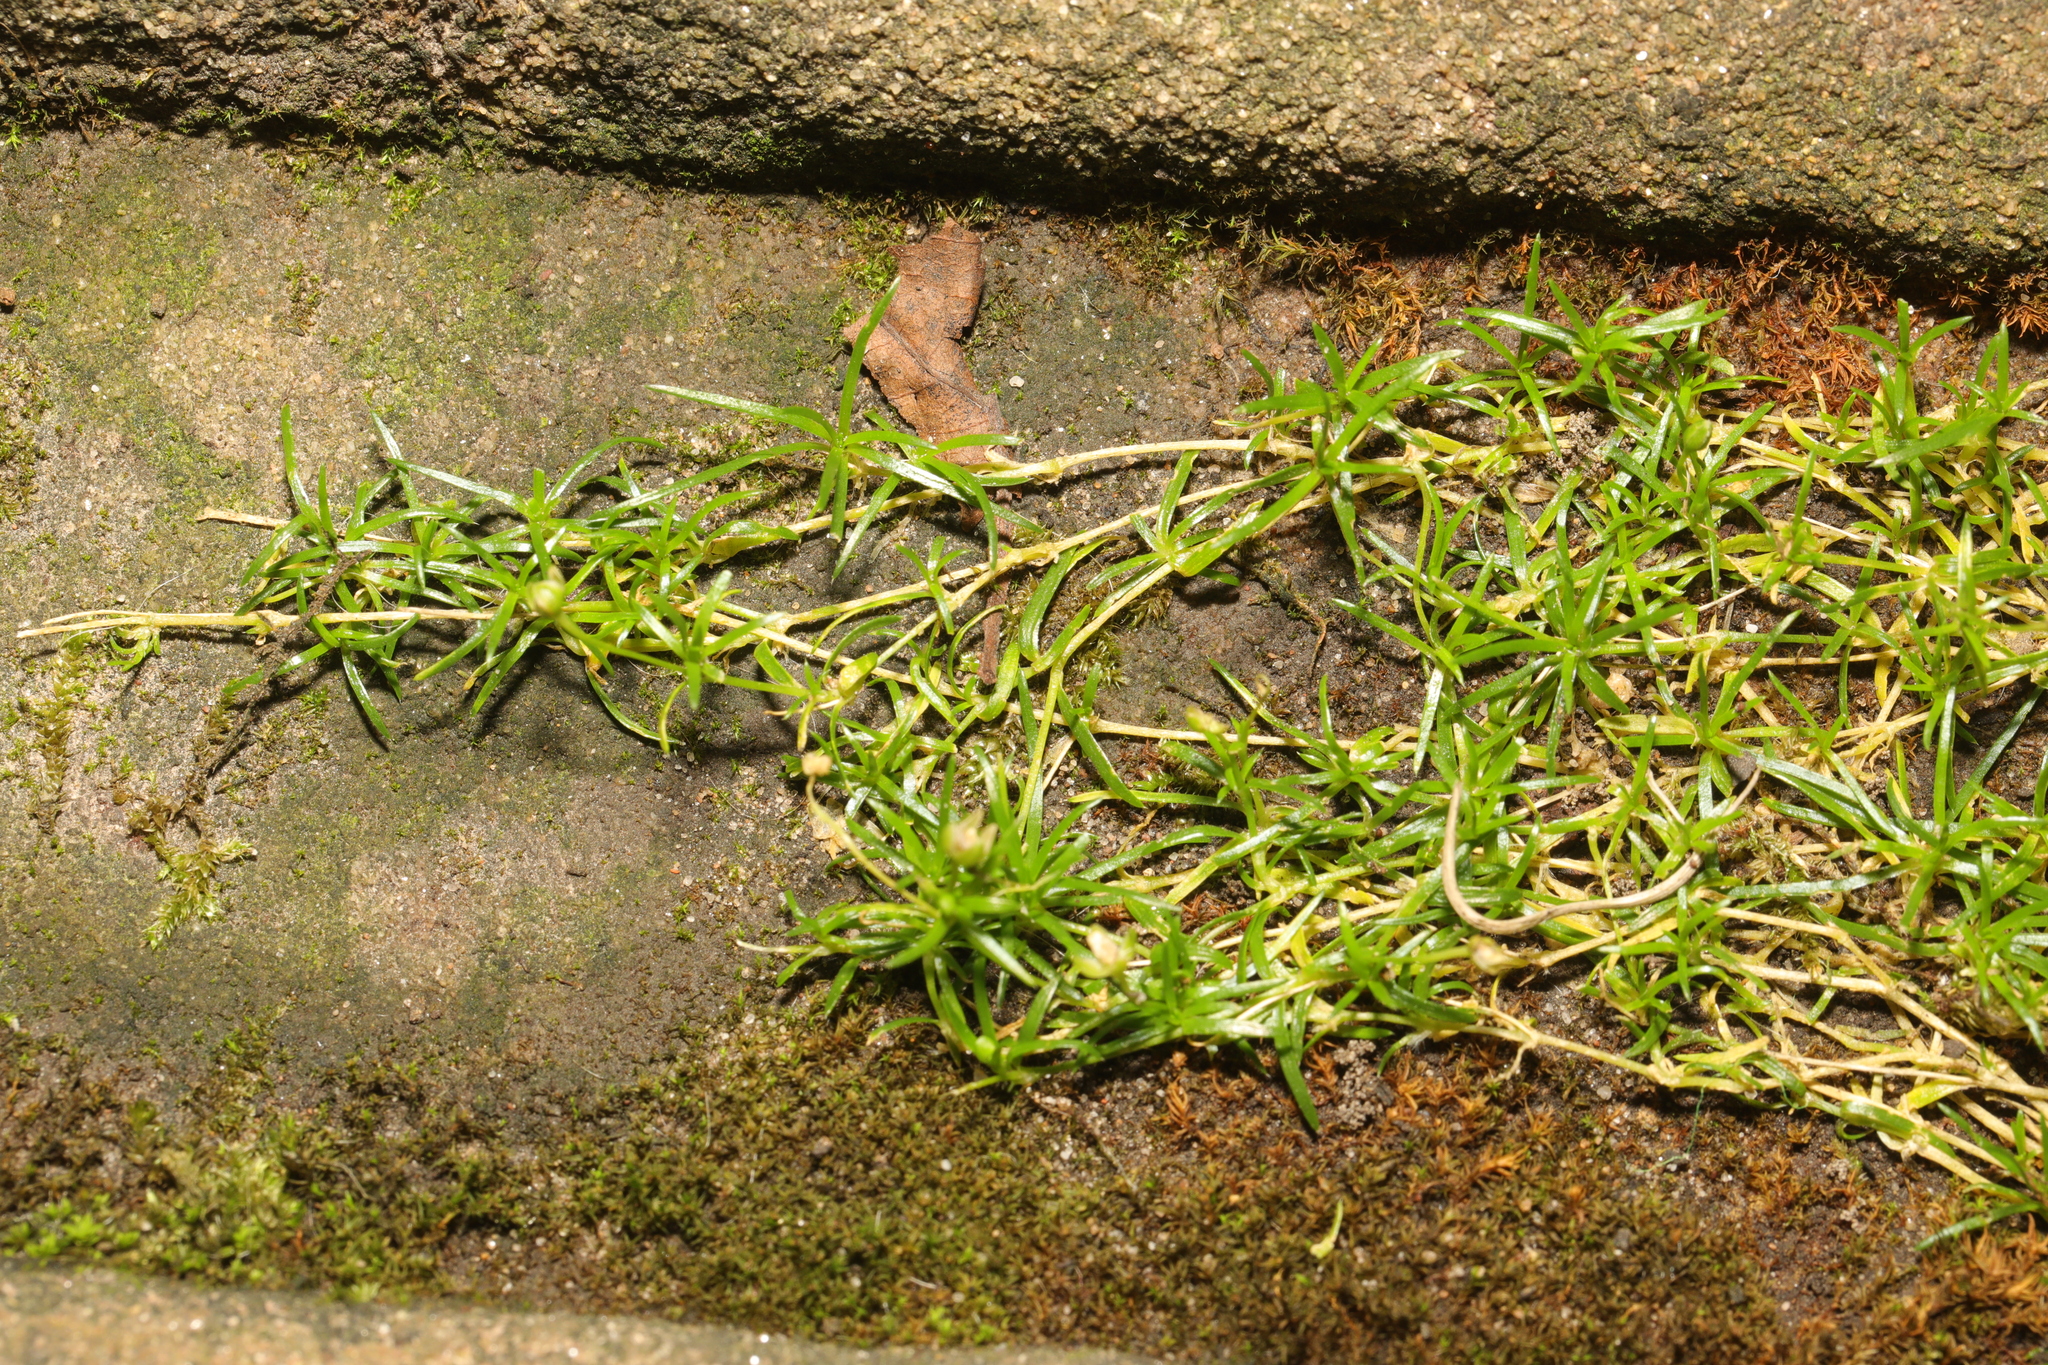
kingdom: Plantae
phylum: Tracheophyta
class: Magnoliopsida
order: Caryophyllales
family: Caryophyllaceae
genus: Sagina
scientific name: Sagina procumbens
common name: Procumbent pearlwort
